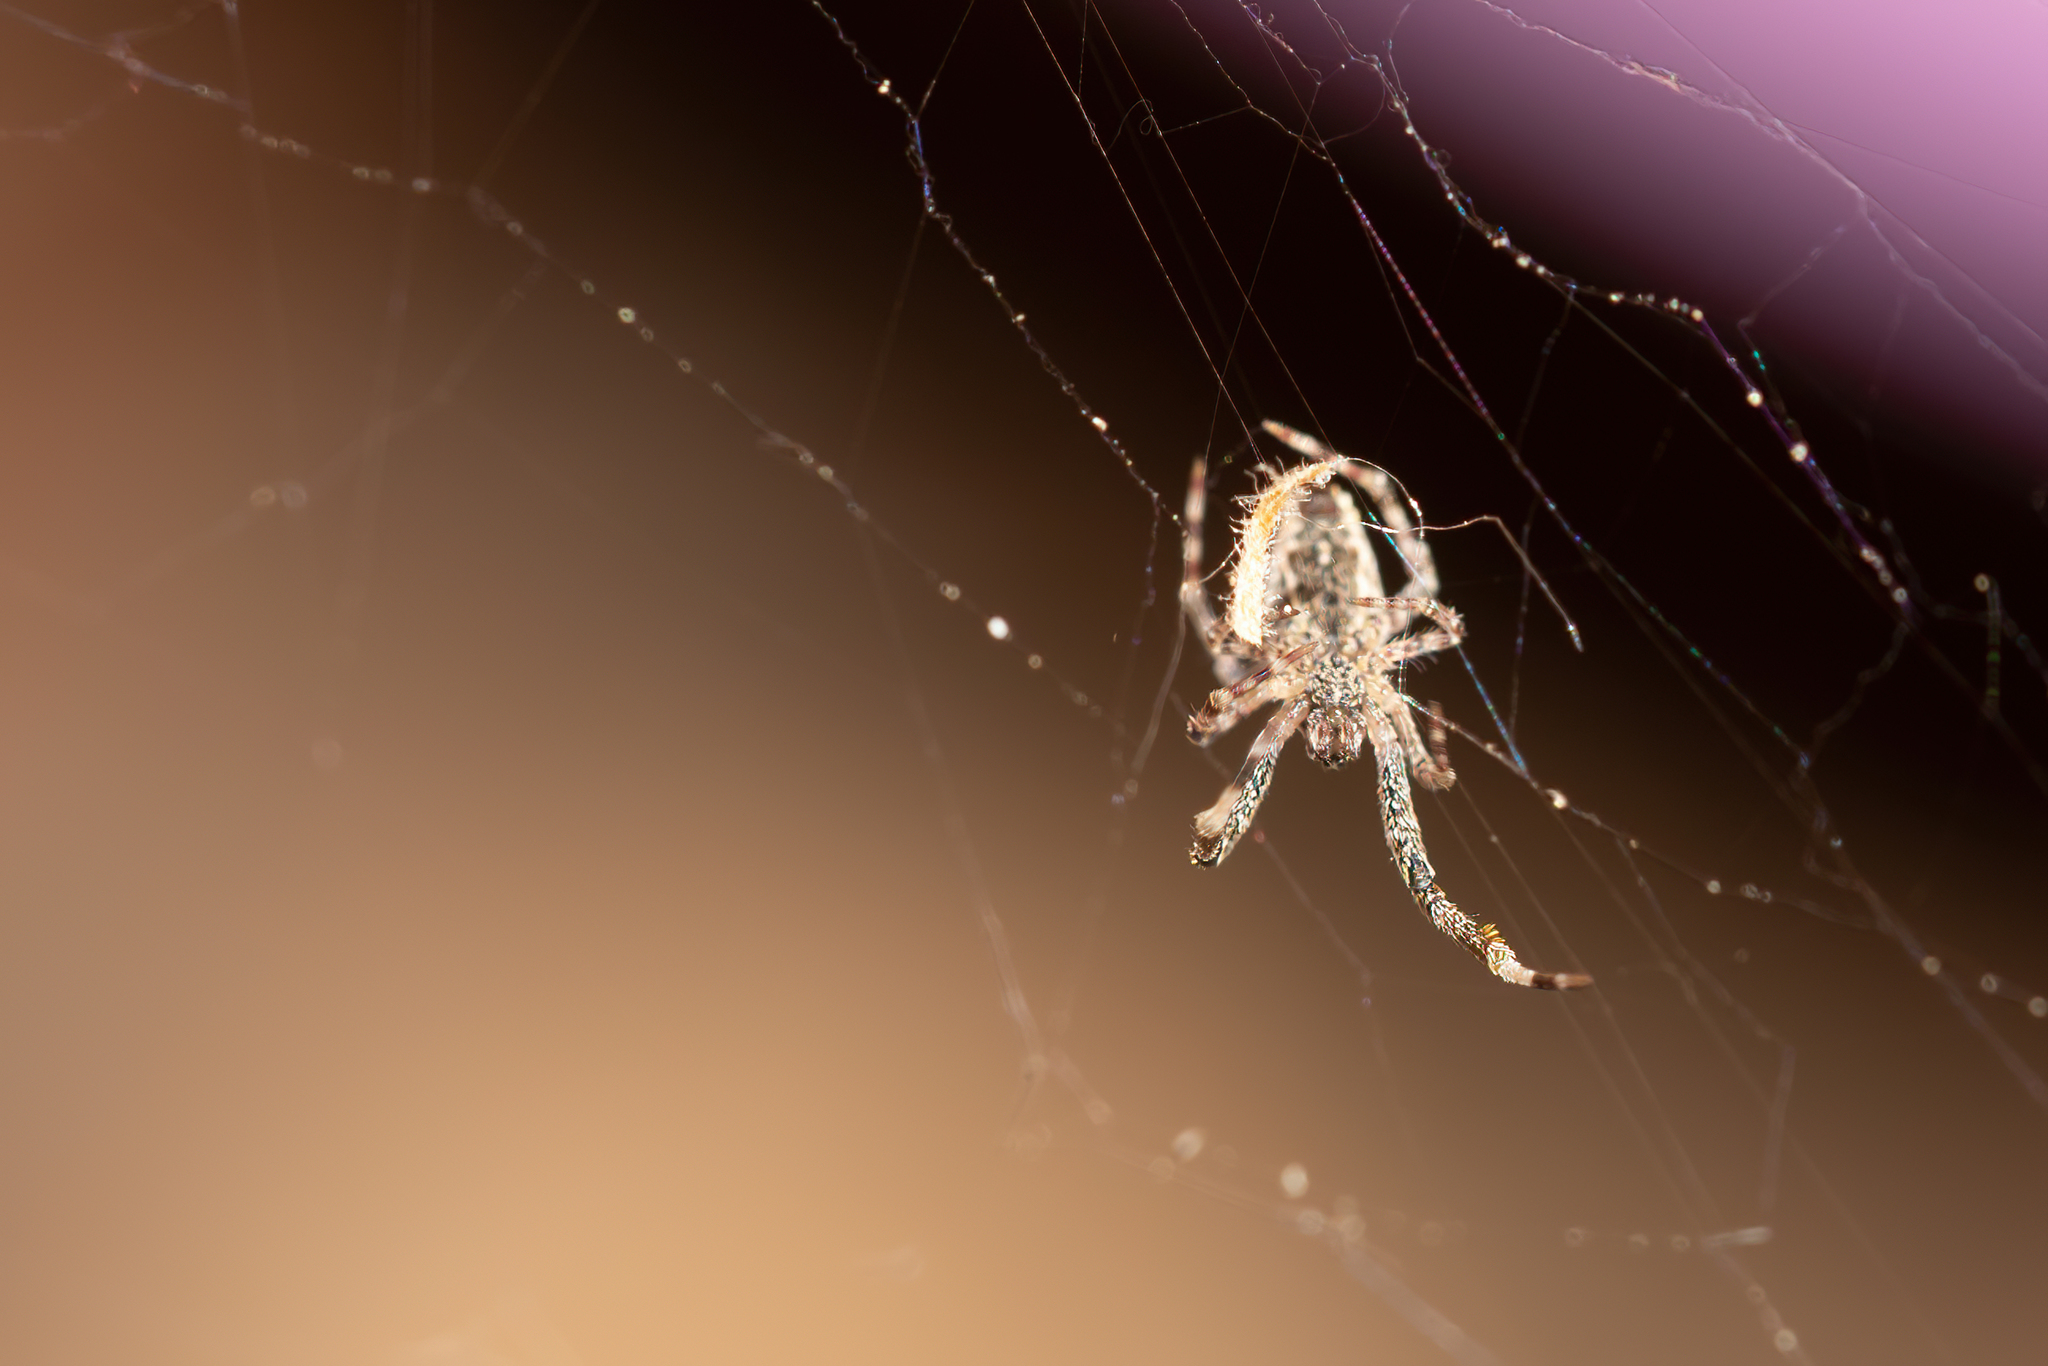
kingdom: Animalia
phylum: Arthropoda
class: Arachnida
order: Araneae
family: Uloboridae
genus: Uloborus
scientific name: Uloborus diversus
